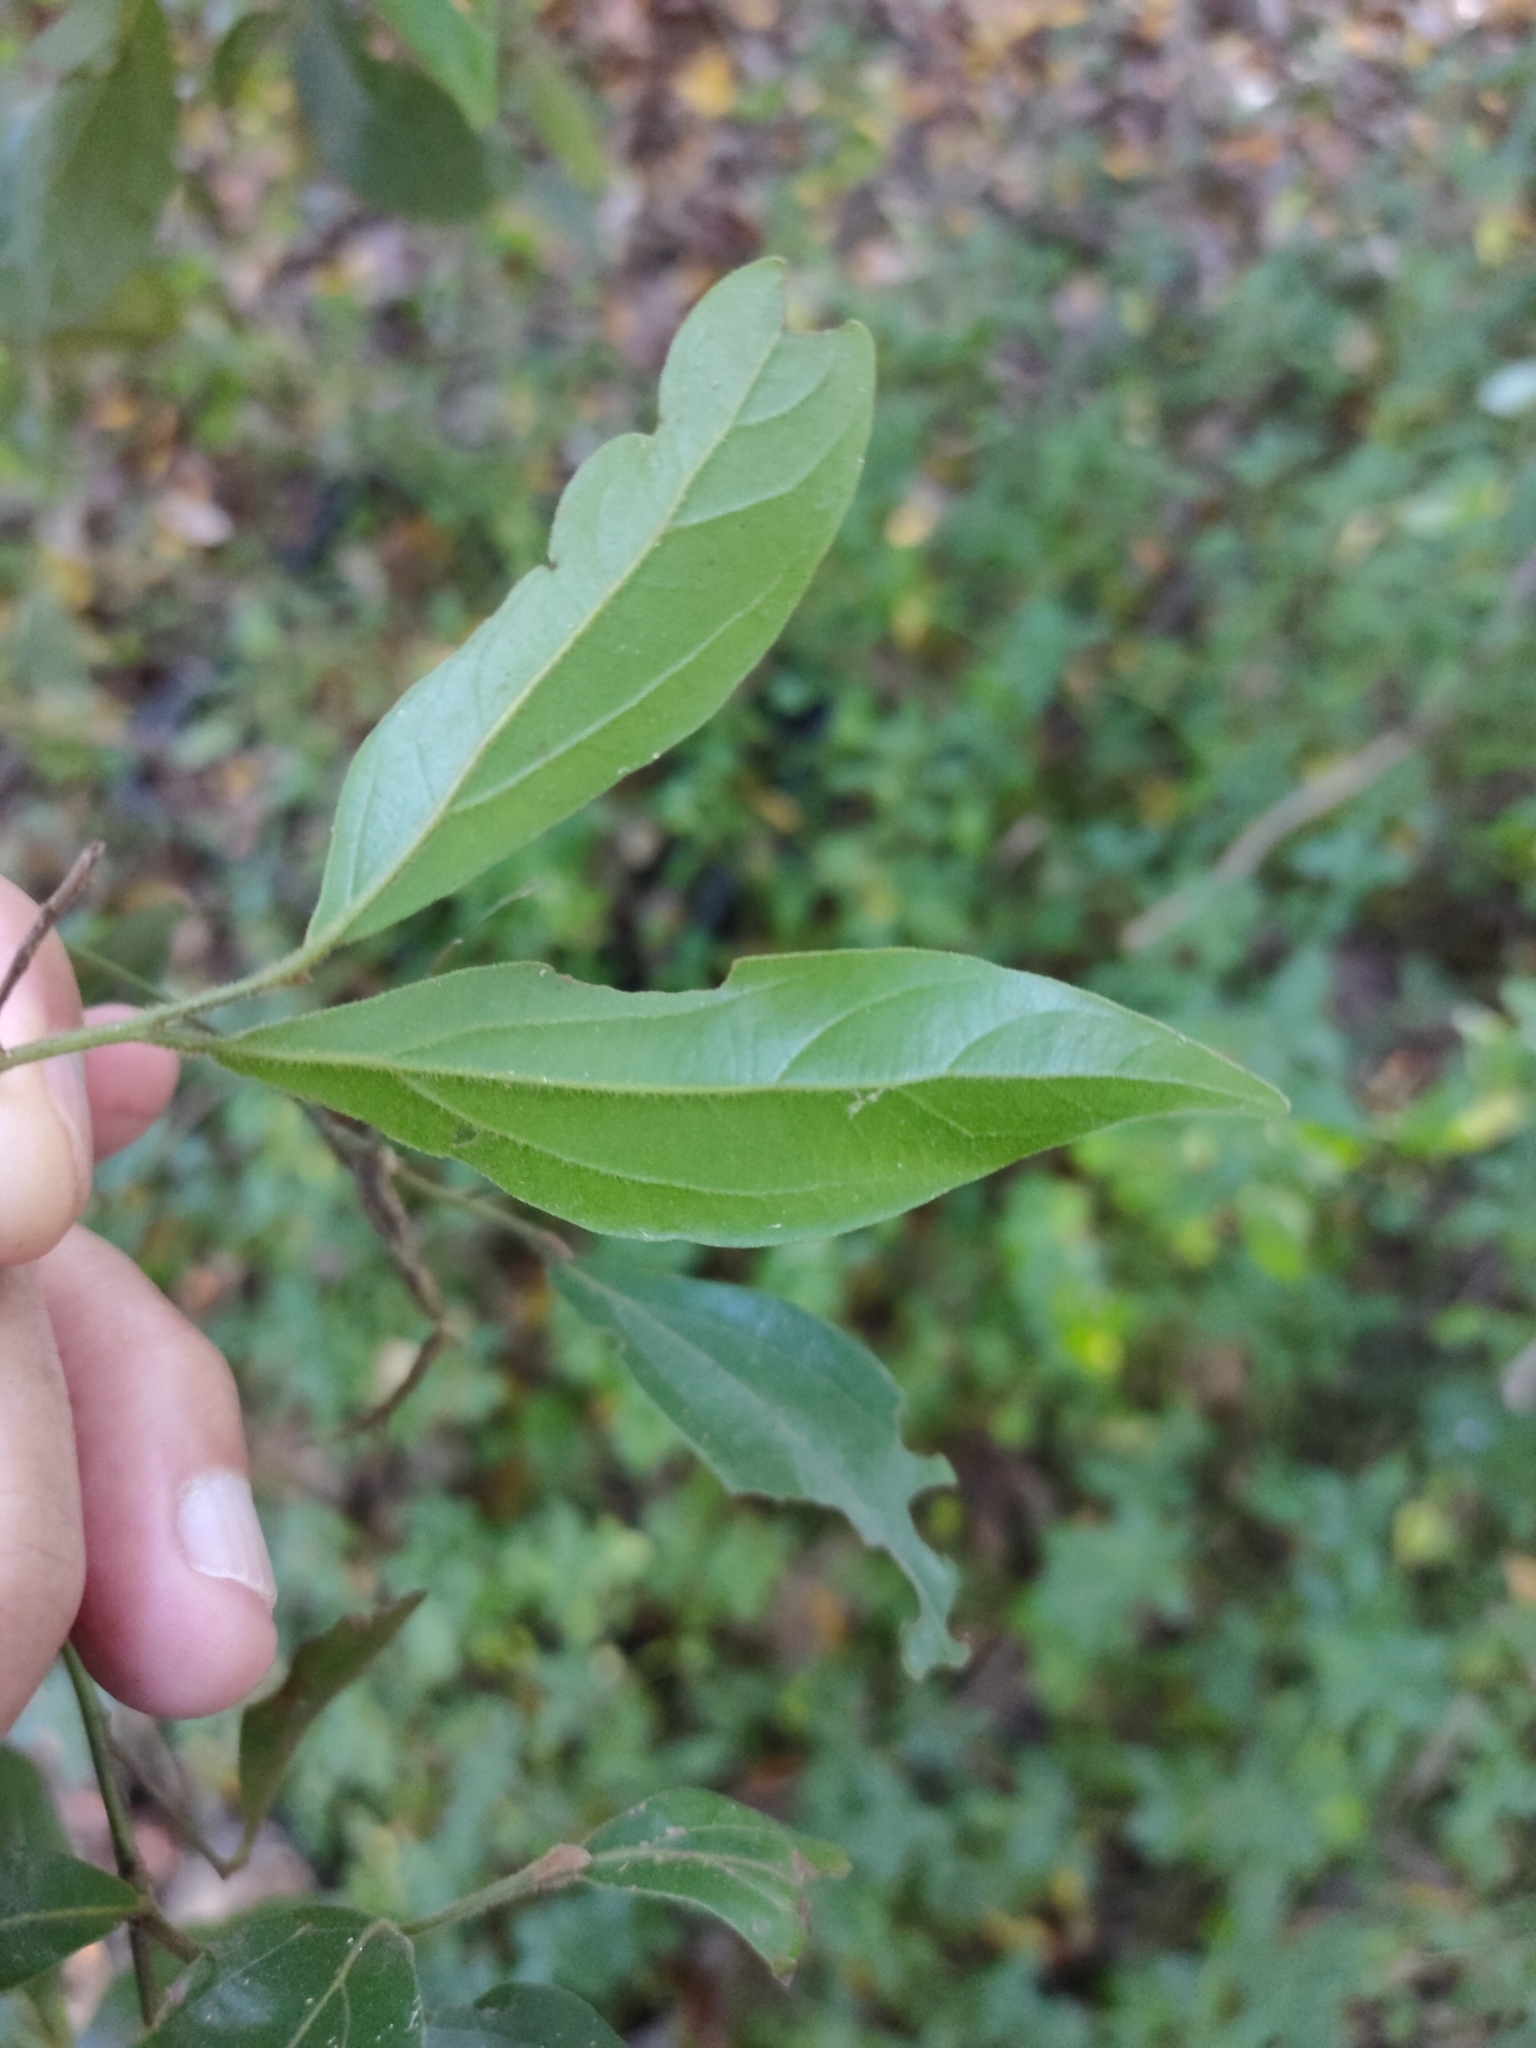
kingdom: Plantae
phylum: Tracheophyta
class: Magnoliopsida
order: Laurales
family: Lauraceae
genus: Cryptocarya
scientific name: Cryptocarya triplinervis
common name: Three-vein cryptocarya
